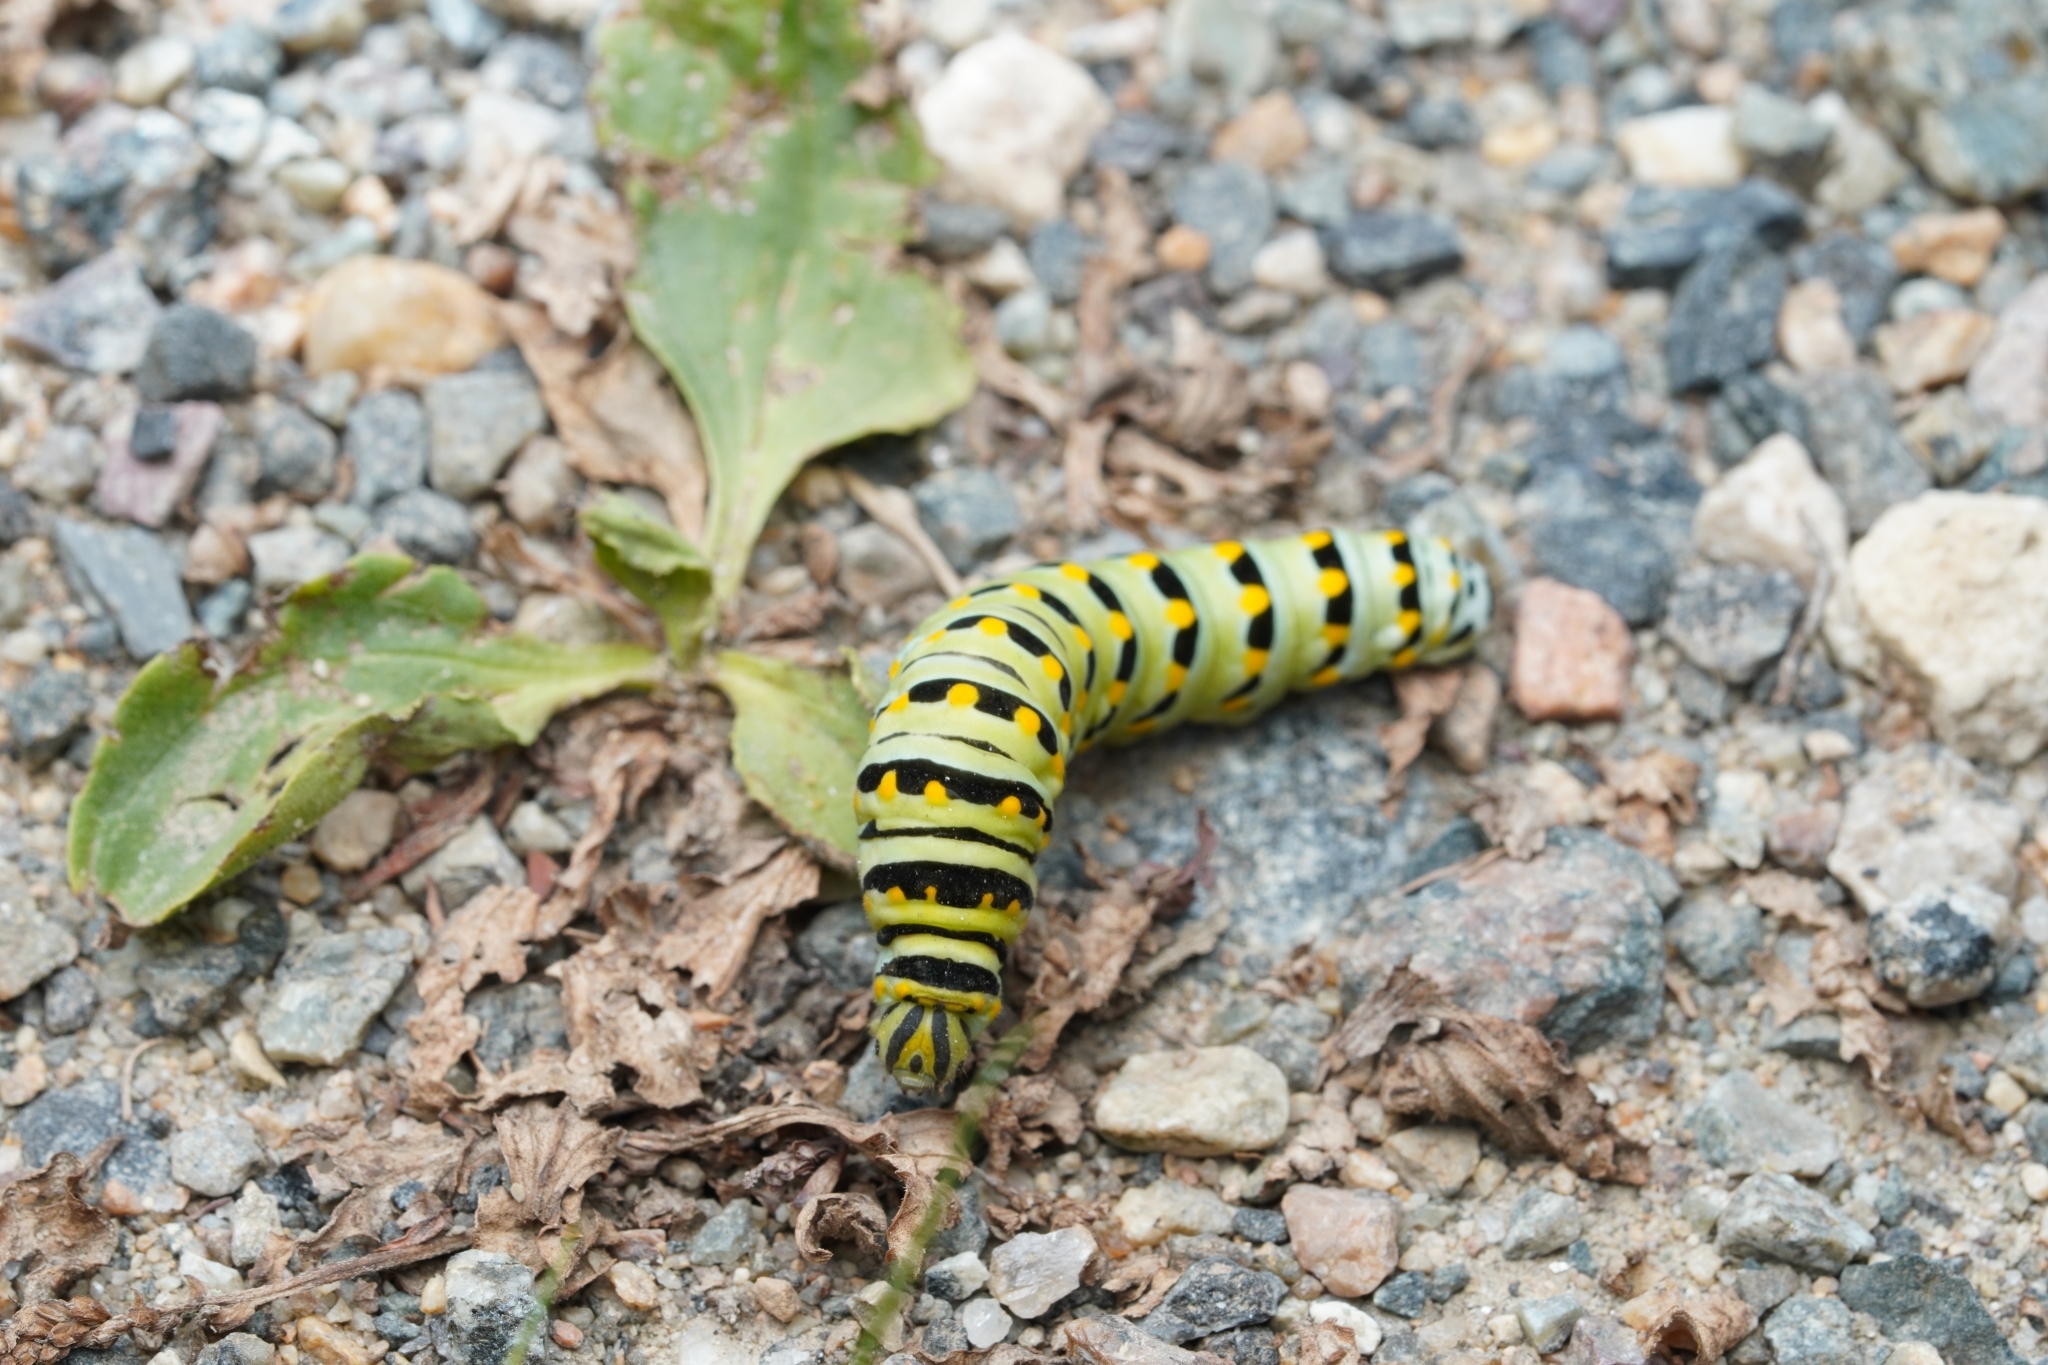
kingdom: Animalia
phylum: Arthropoda
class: Insecta
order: Lepidoptera
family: Papilionidae
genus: Papilio
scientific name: Papilio polyxenes
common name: Black swallowtail
